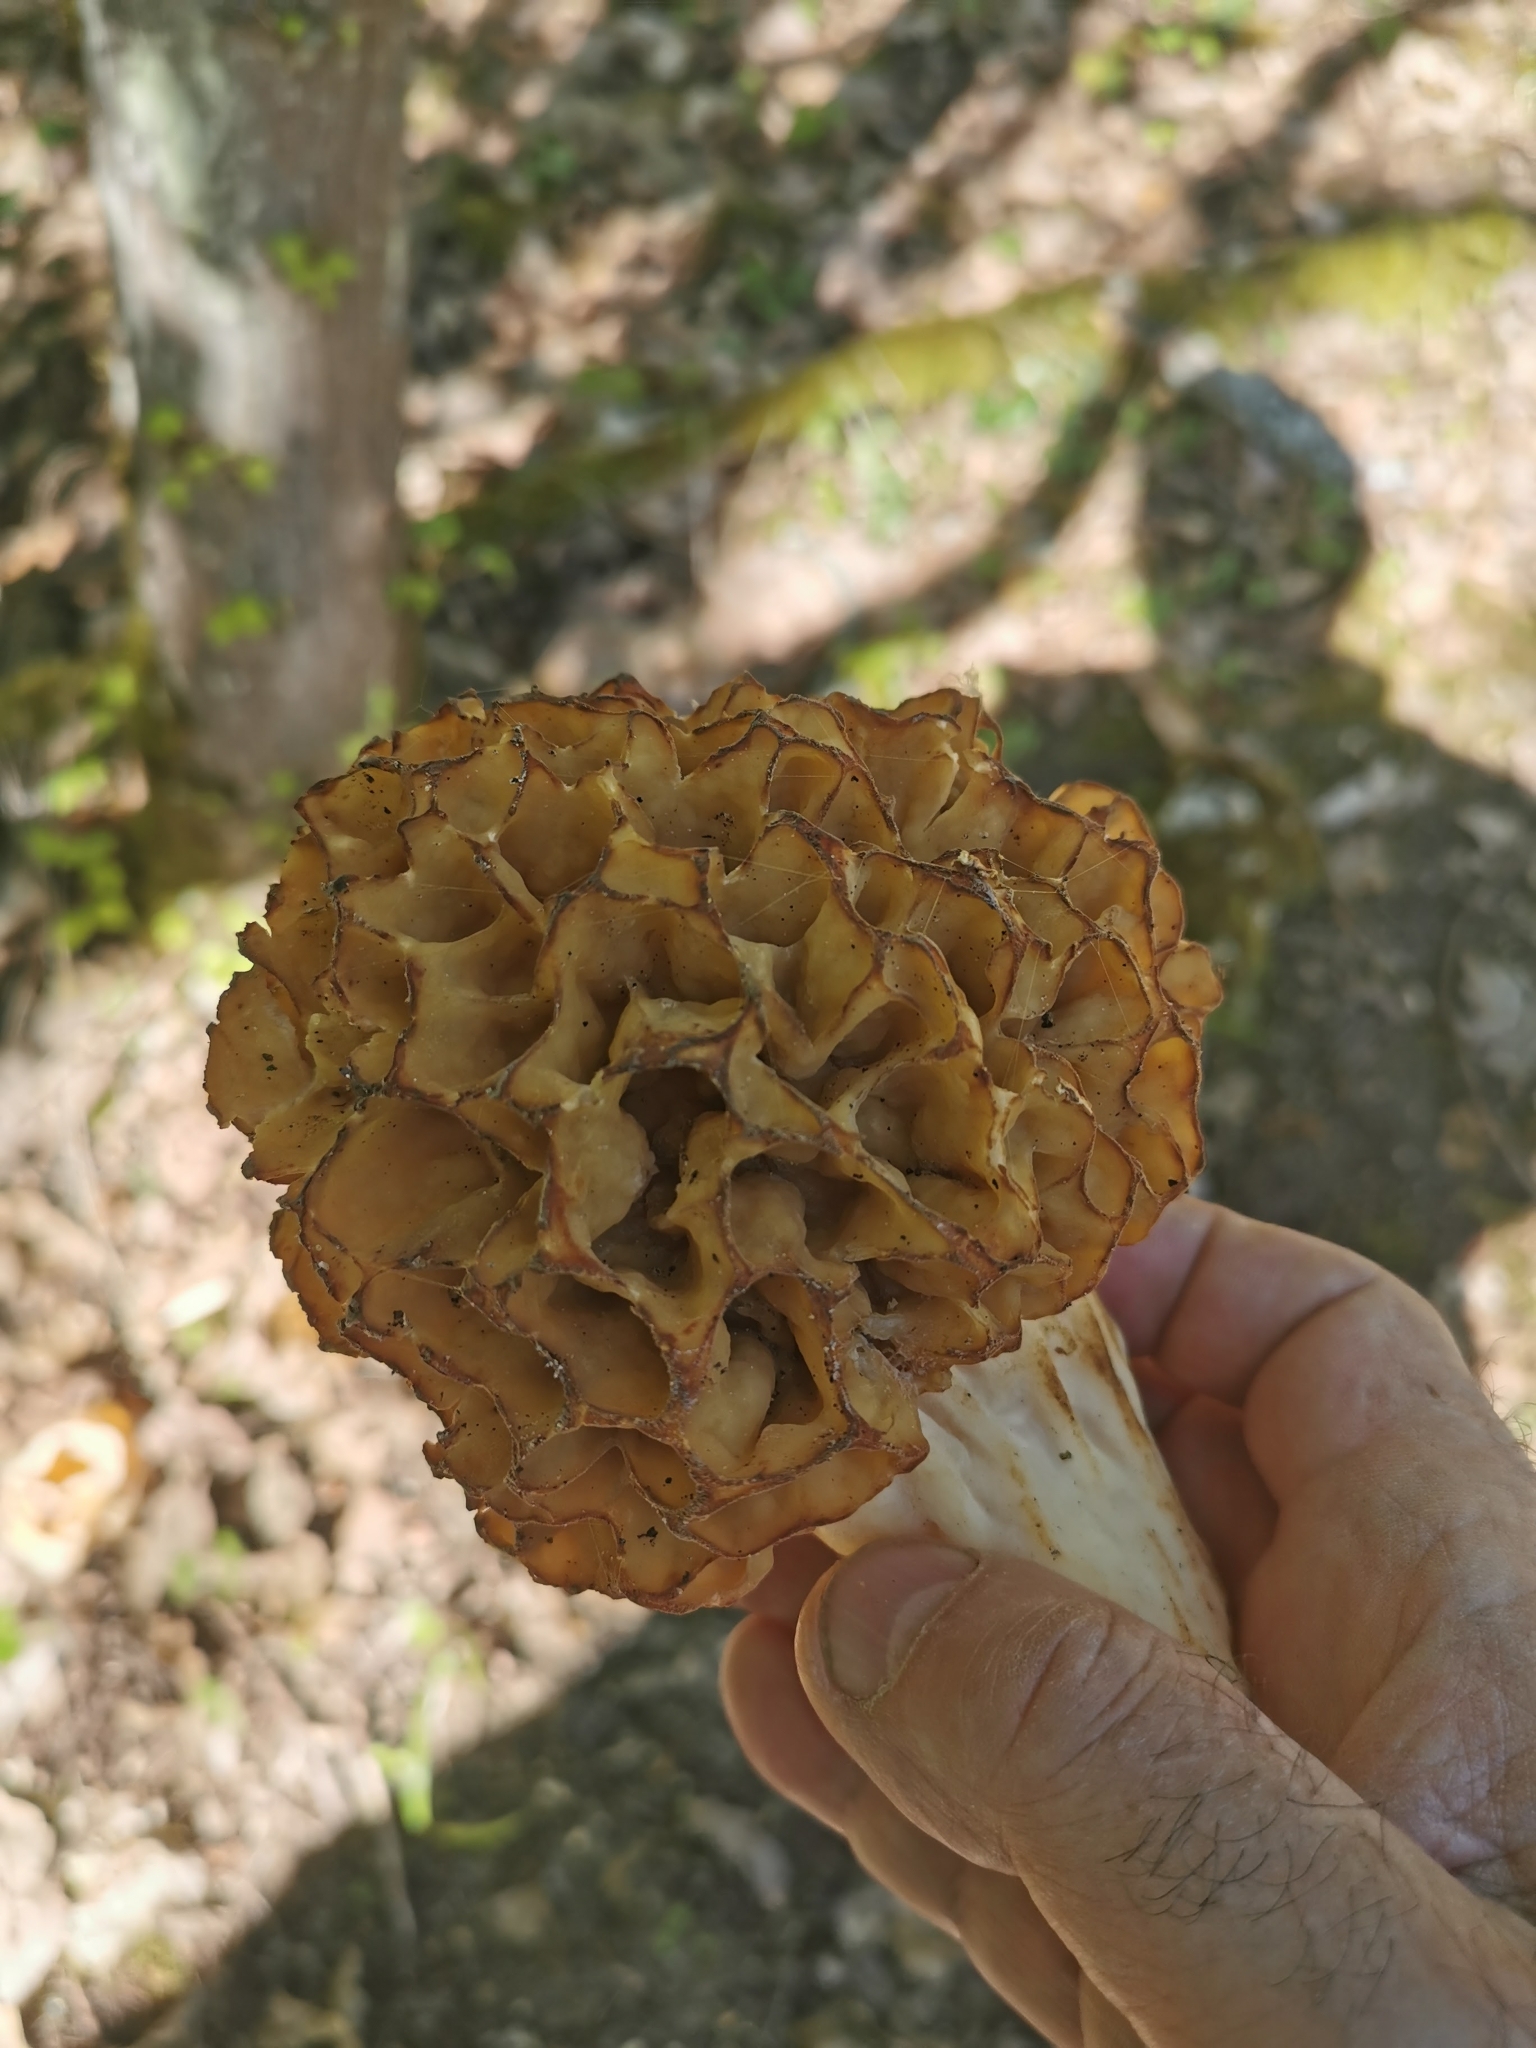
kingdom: Fungi
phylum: Ascomycota
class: Pezizomycetes
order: Pezizales
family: Morchellaceae
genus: Morchella
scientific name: Morchella esculenta
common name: Morel
